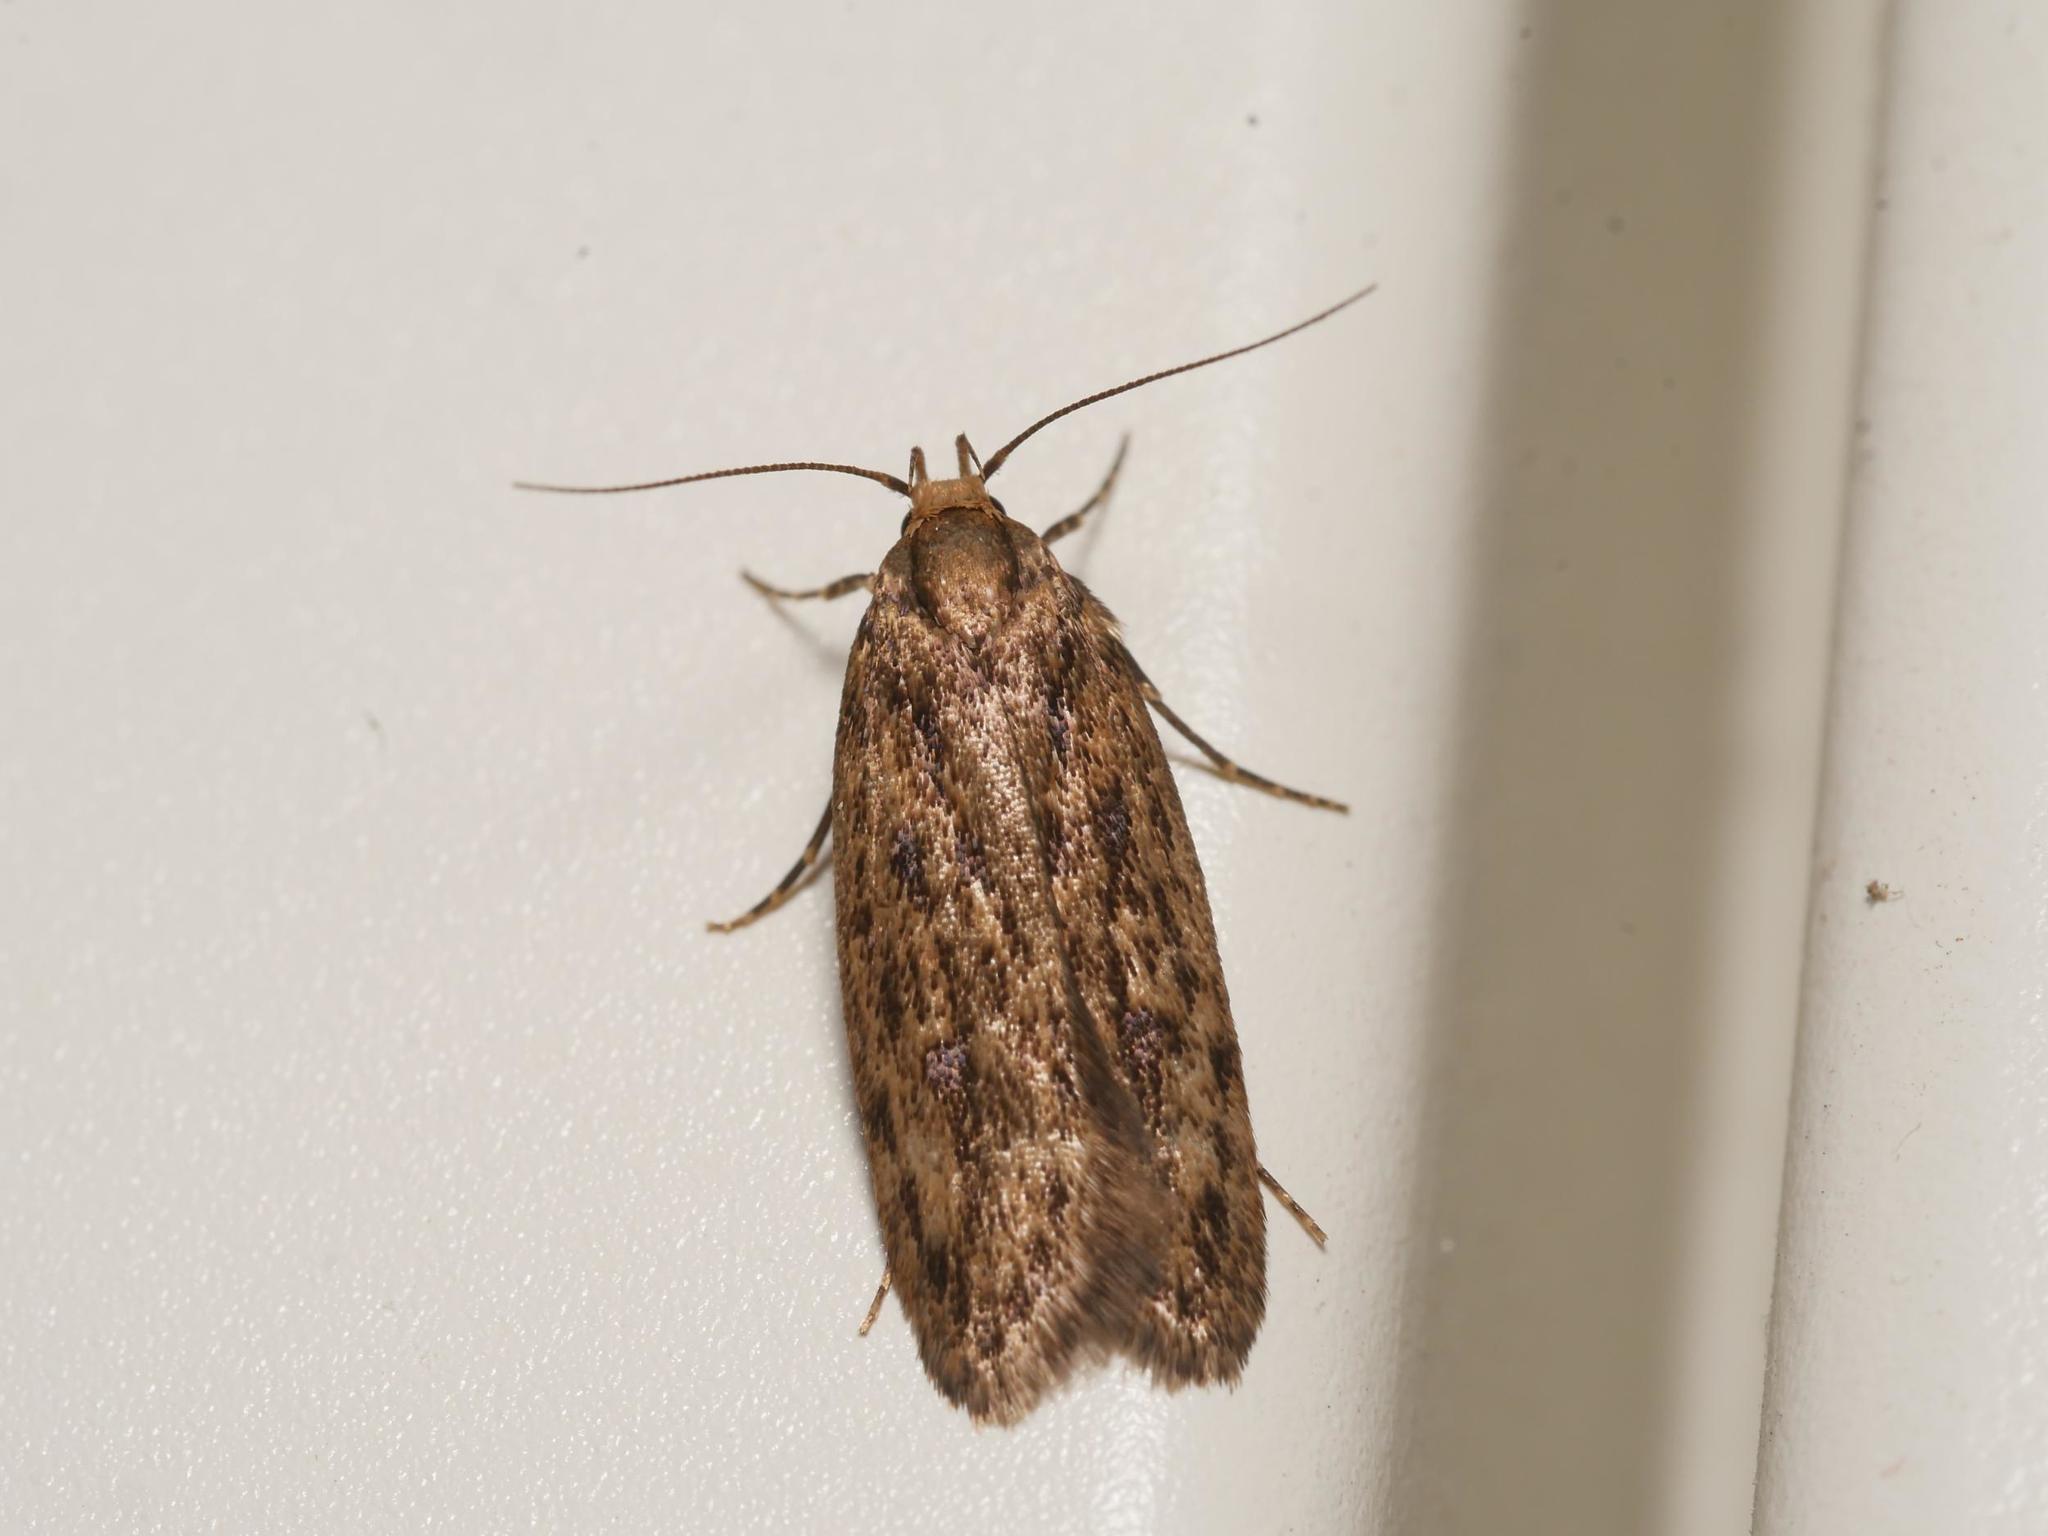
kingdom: Animalia
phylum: Arthropoda
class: Insecta
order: Lepidoptera
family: Oecophoridae
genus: Hofmannophila
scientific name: Hofmannophila pseudospretella
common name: Brown house moth
